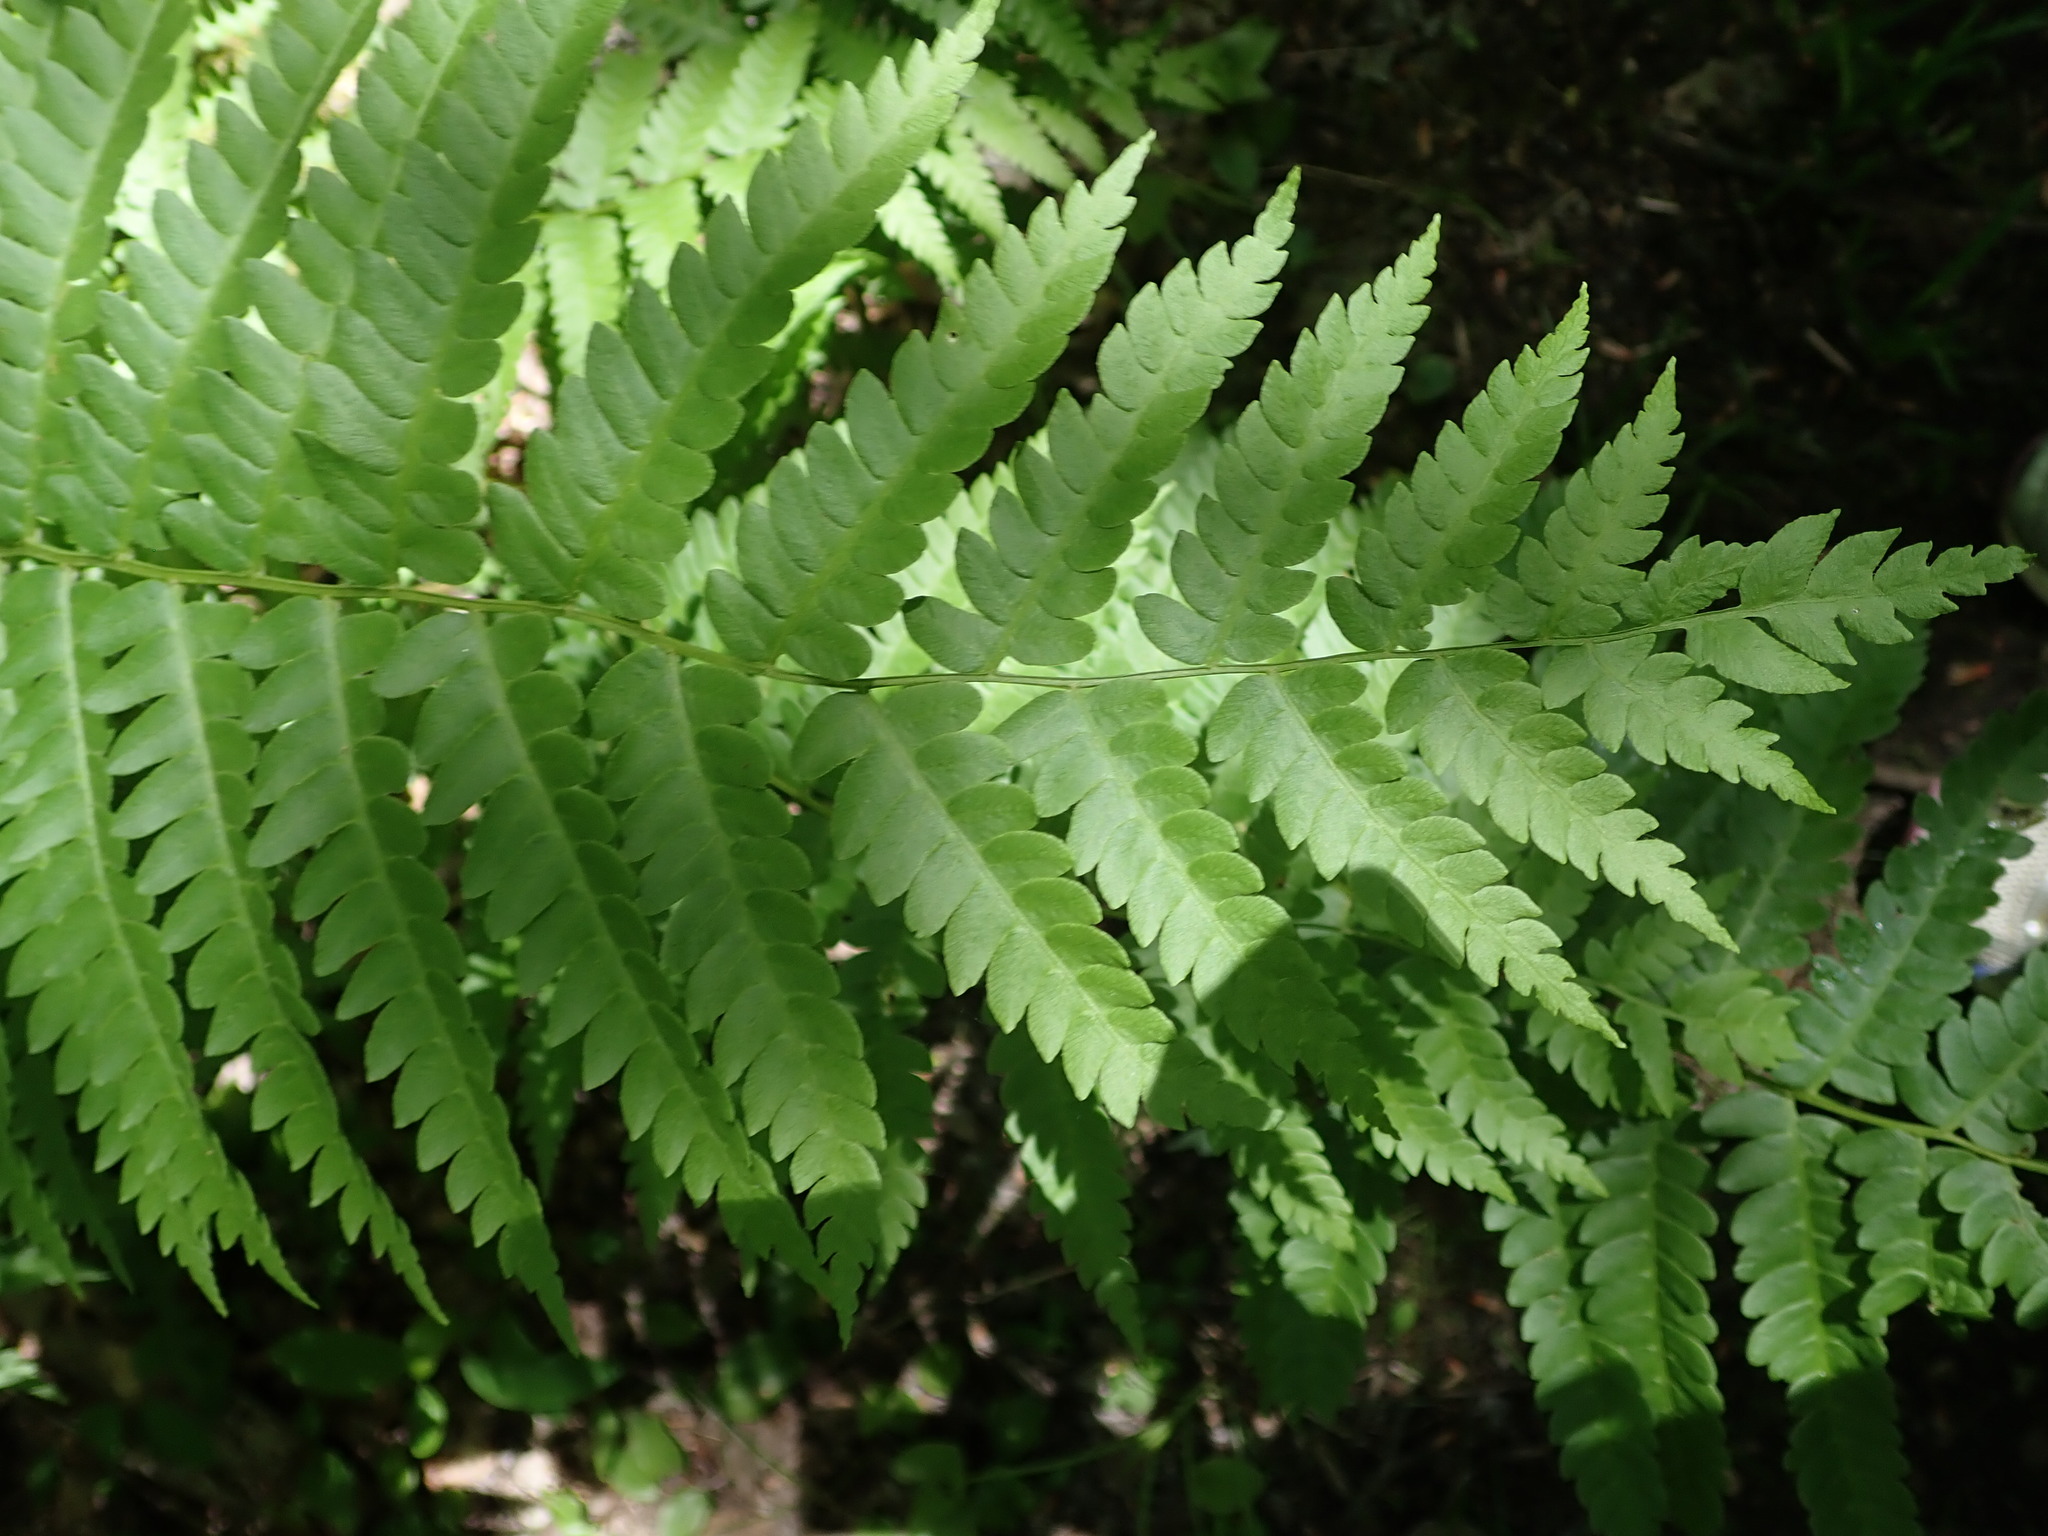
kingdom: Plantae
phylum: Tracheophyta
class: Polypodiopsida
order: Osmundales
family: Osmundaceae
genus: Osmundastrum
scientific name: Osmundastrum cinnamomeum
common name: Cinnamon fern
